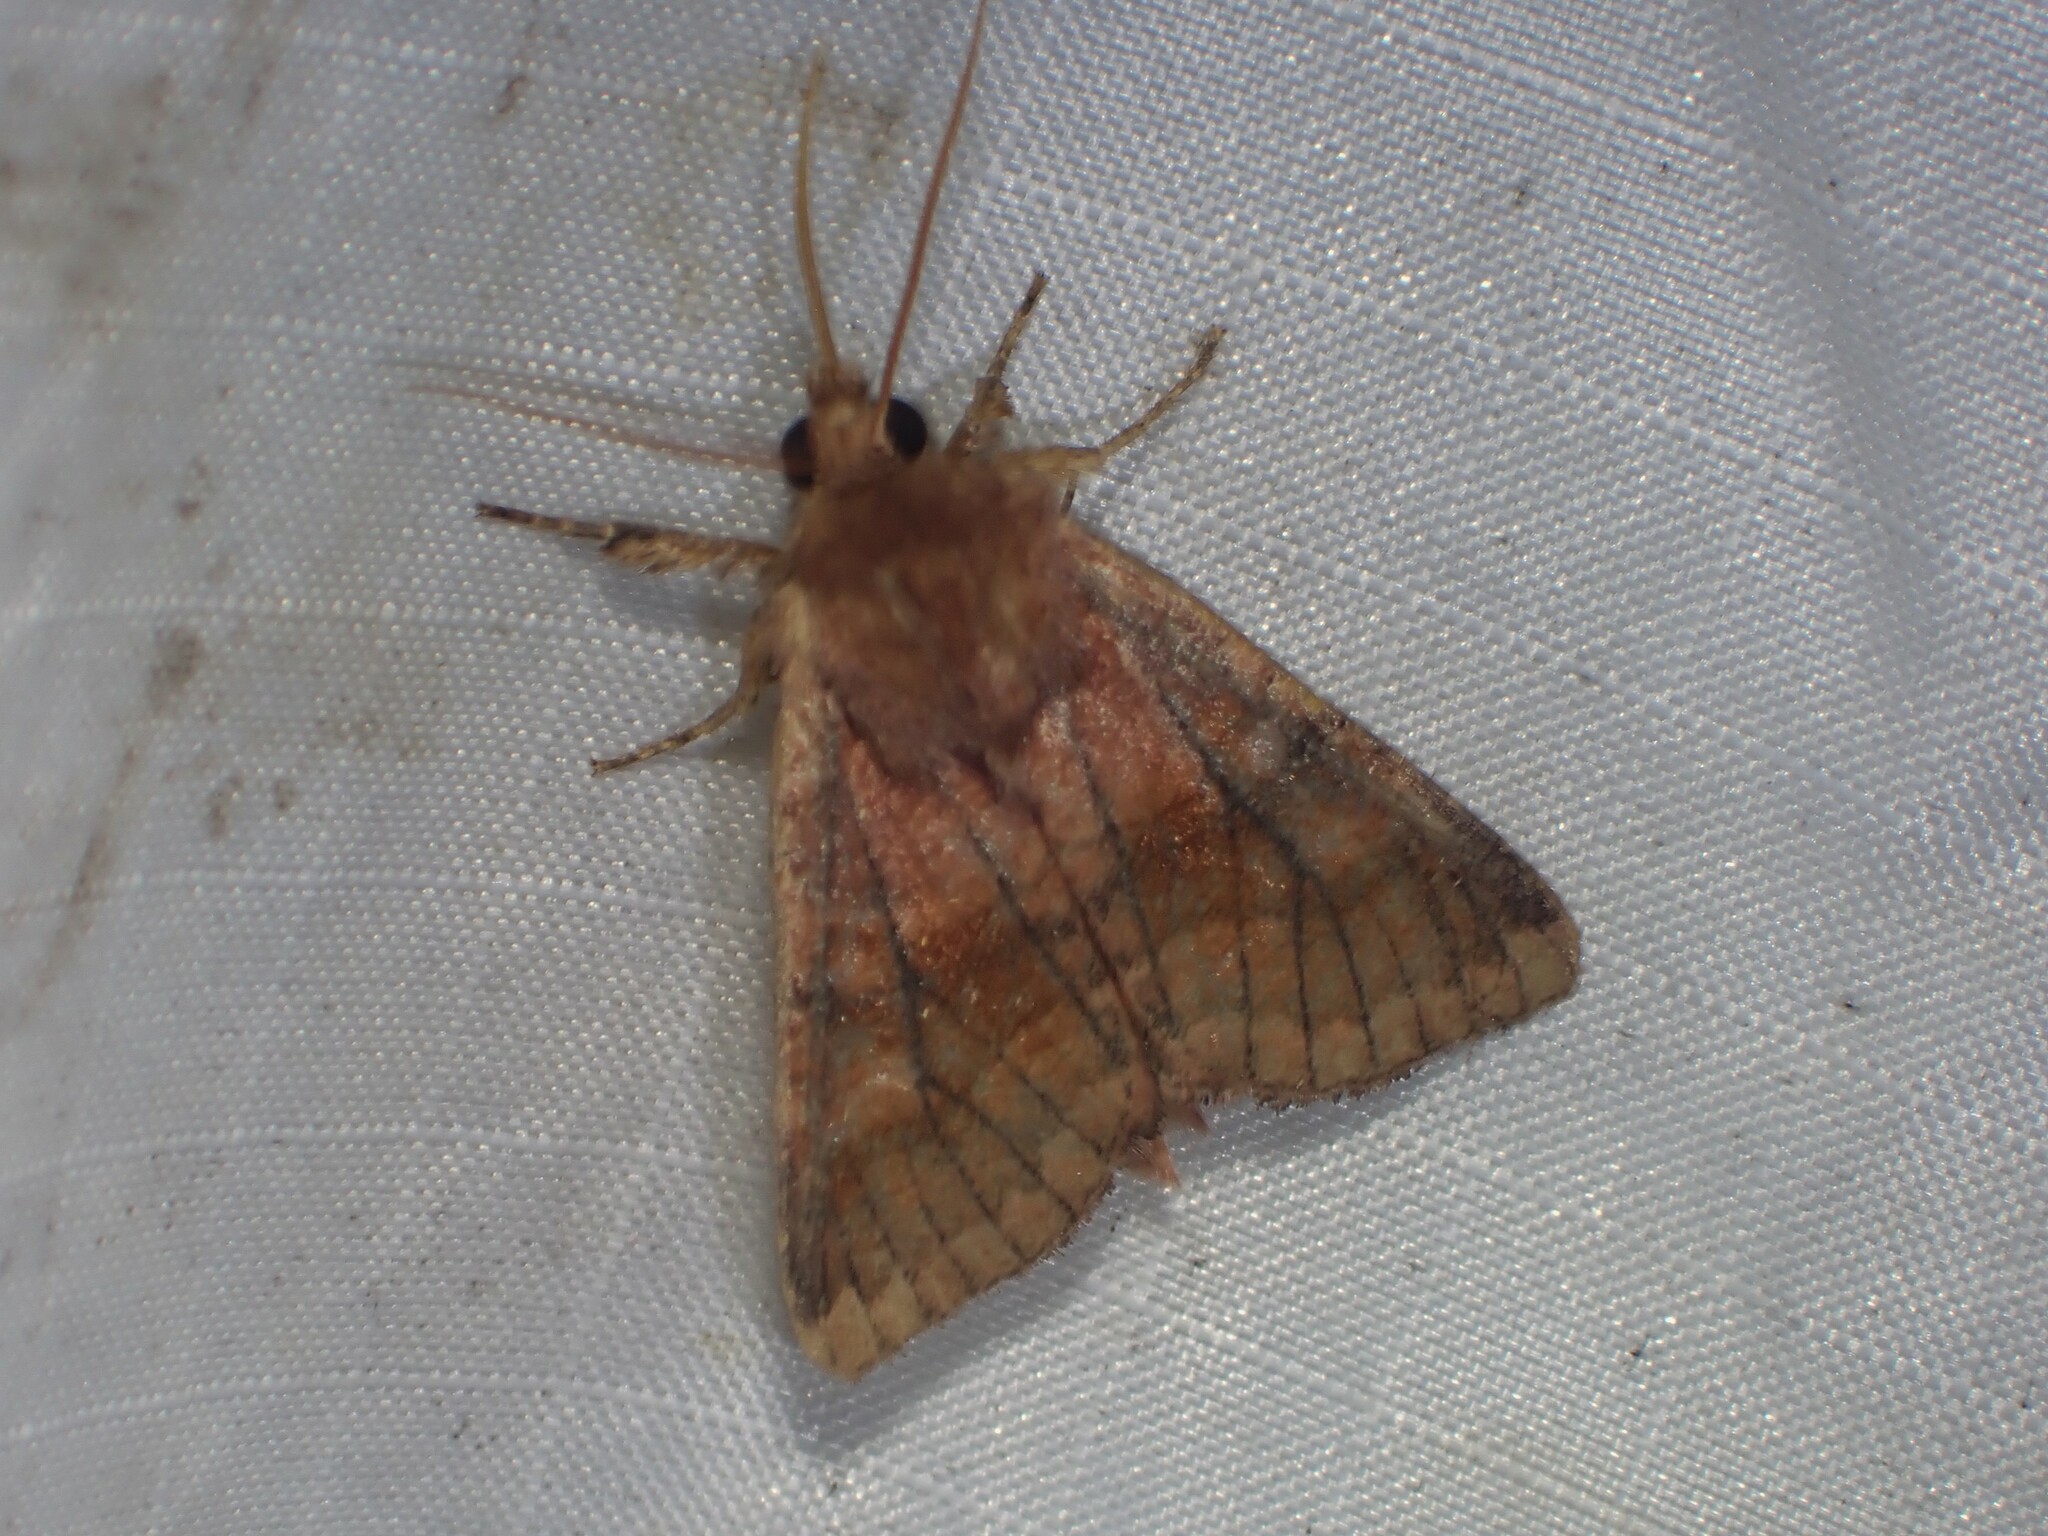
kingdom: Animalia
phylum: Arthropoda
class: Insecta
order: Lepidoptera
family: Noctuidae
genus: Nephelodes
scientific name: Nephelodes minians
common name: Bronzed cutworm
